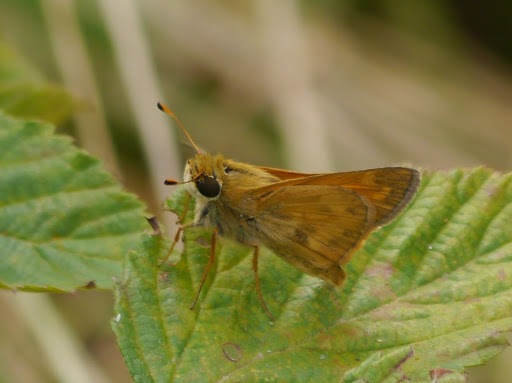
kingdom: Animalia
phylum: Arthropoda
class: Insecta
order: Lepidoptera
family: Hesperiidae
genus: Atalopedes
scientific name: Atalopedes
